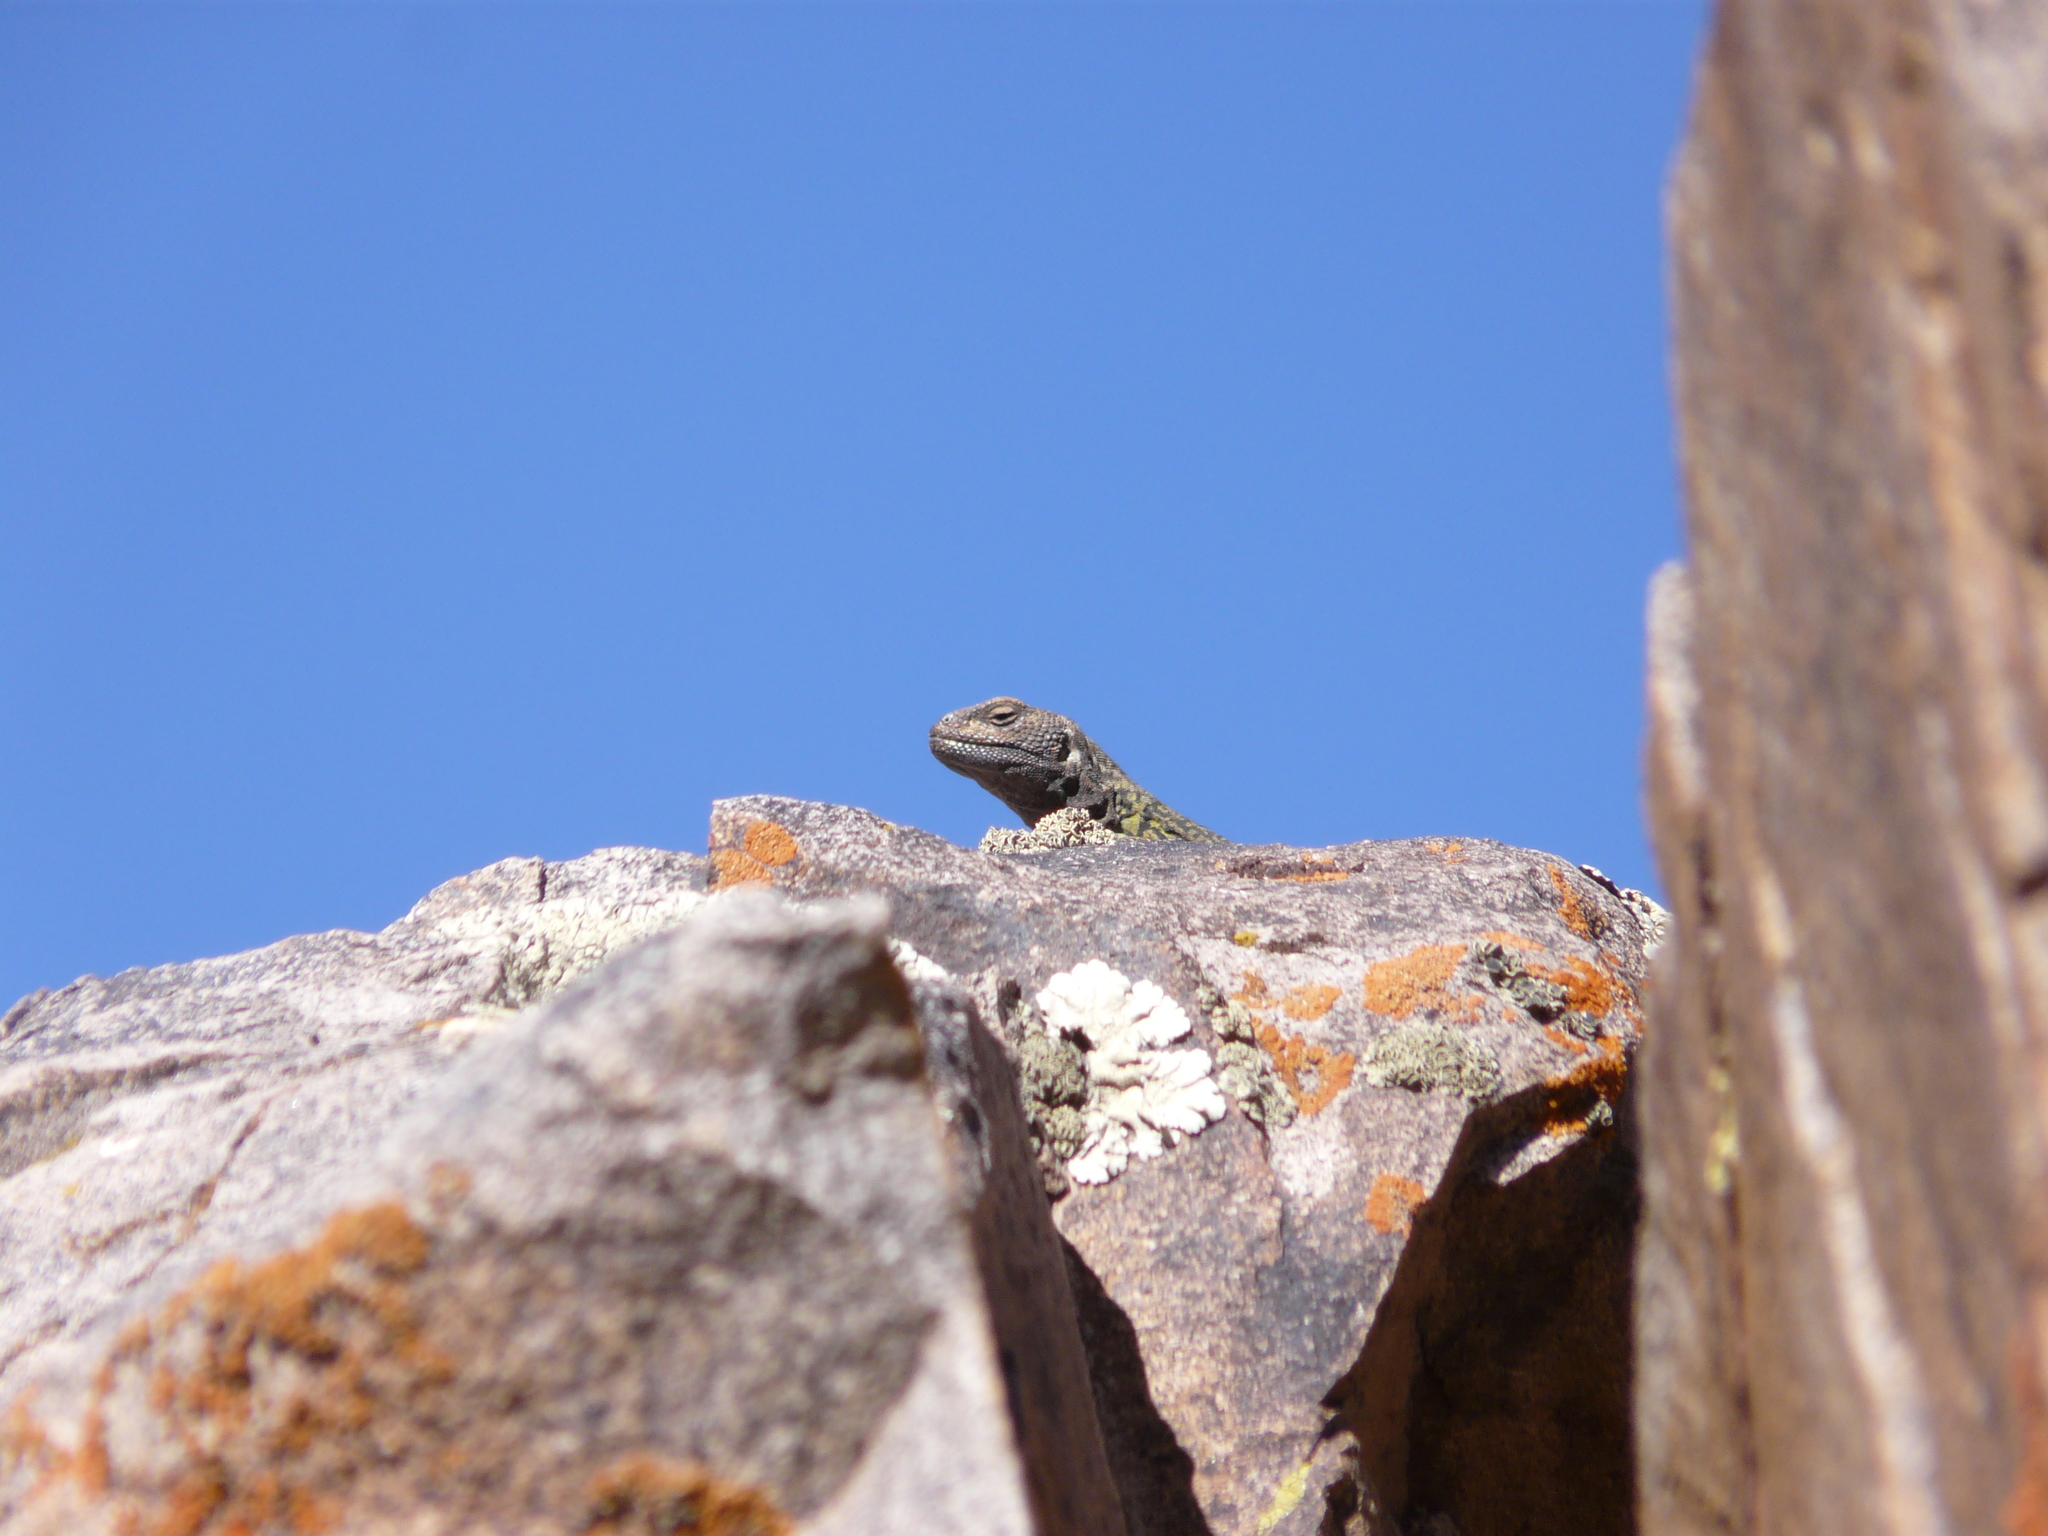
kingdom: Animalia
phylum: Chordata
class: Squamata
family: Liolaemidae
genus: Phymaturus
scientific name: Phymaturus palluma
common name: High mountain lizard
